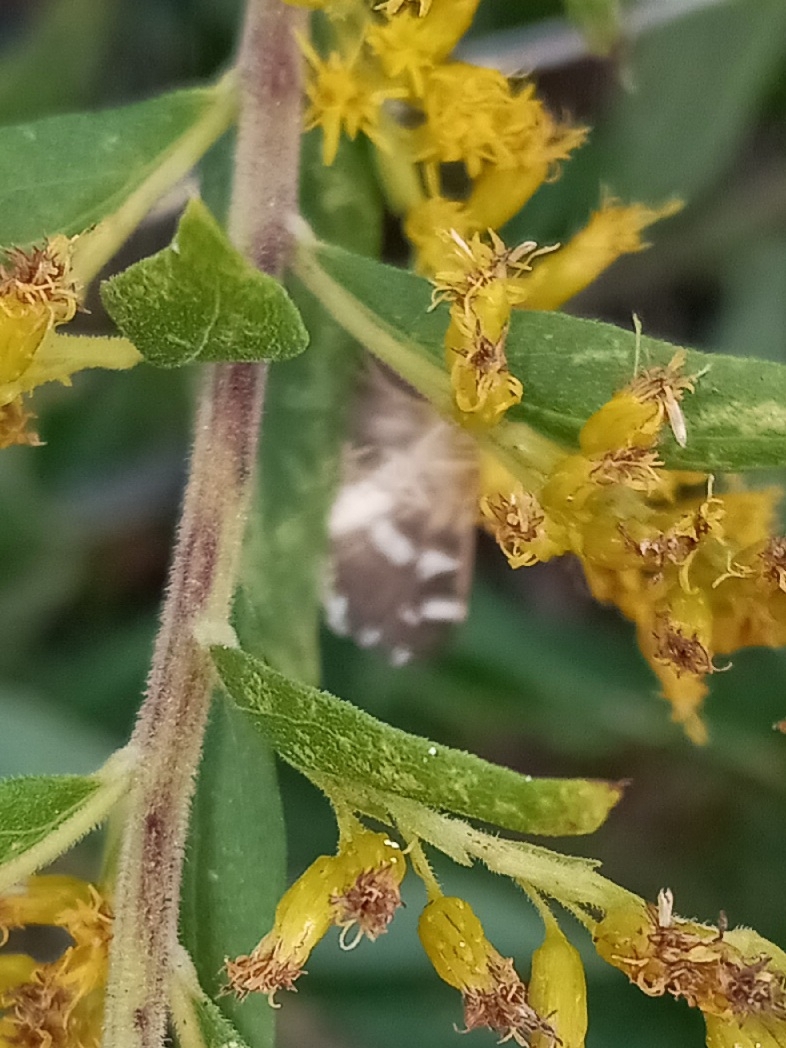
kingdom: Animalia
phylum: Arthropoda
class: Insecta
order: Lepidoptera
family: Crambidae
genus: Spoladea
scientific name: Spoladea recurvalis
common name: Beet webworm moth
